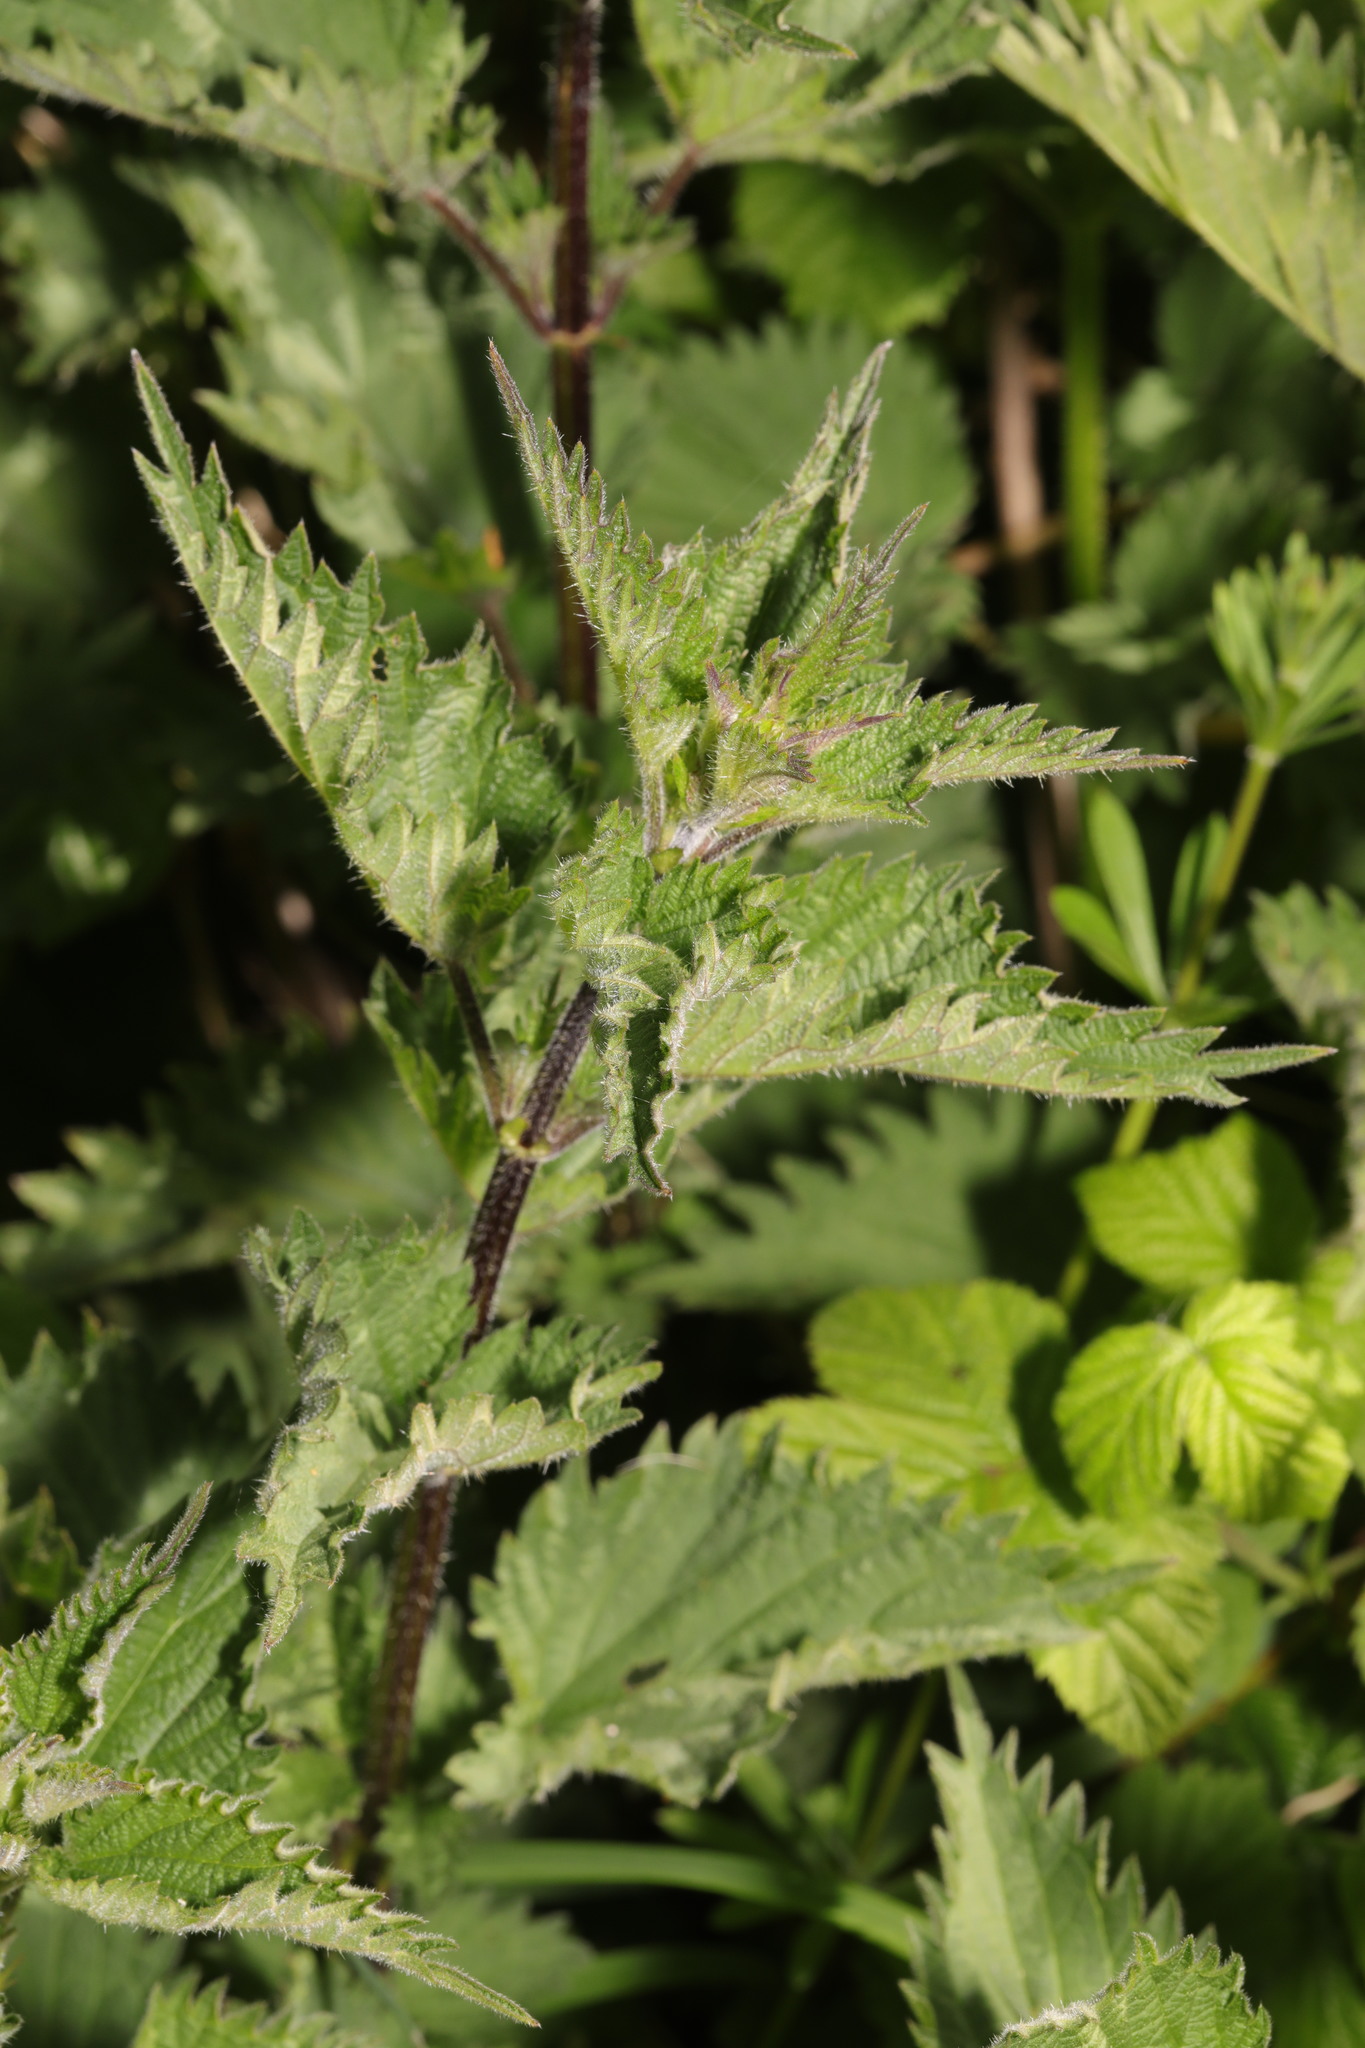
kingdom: Plantae
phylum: Tracheophyta
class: Magnoliopsida
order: Rosales
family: Urticaceae
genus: Urtica
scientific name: Urtica dioica
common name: Common nettle
